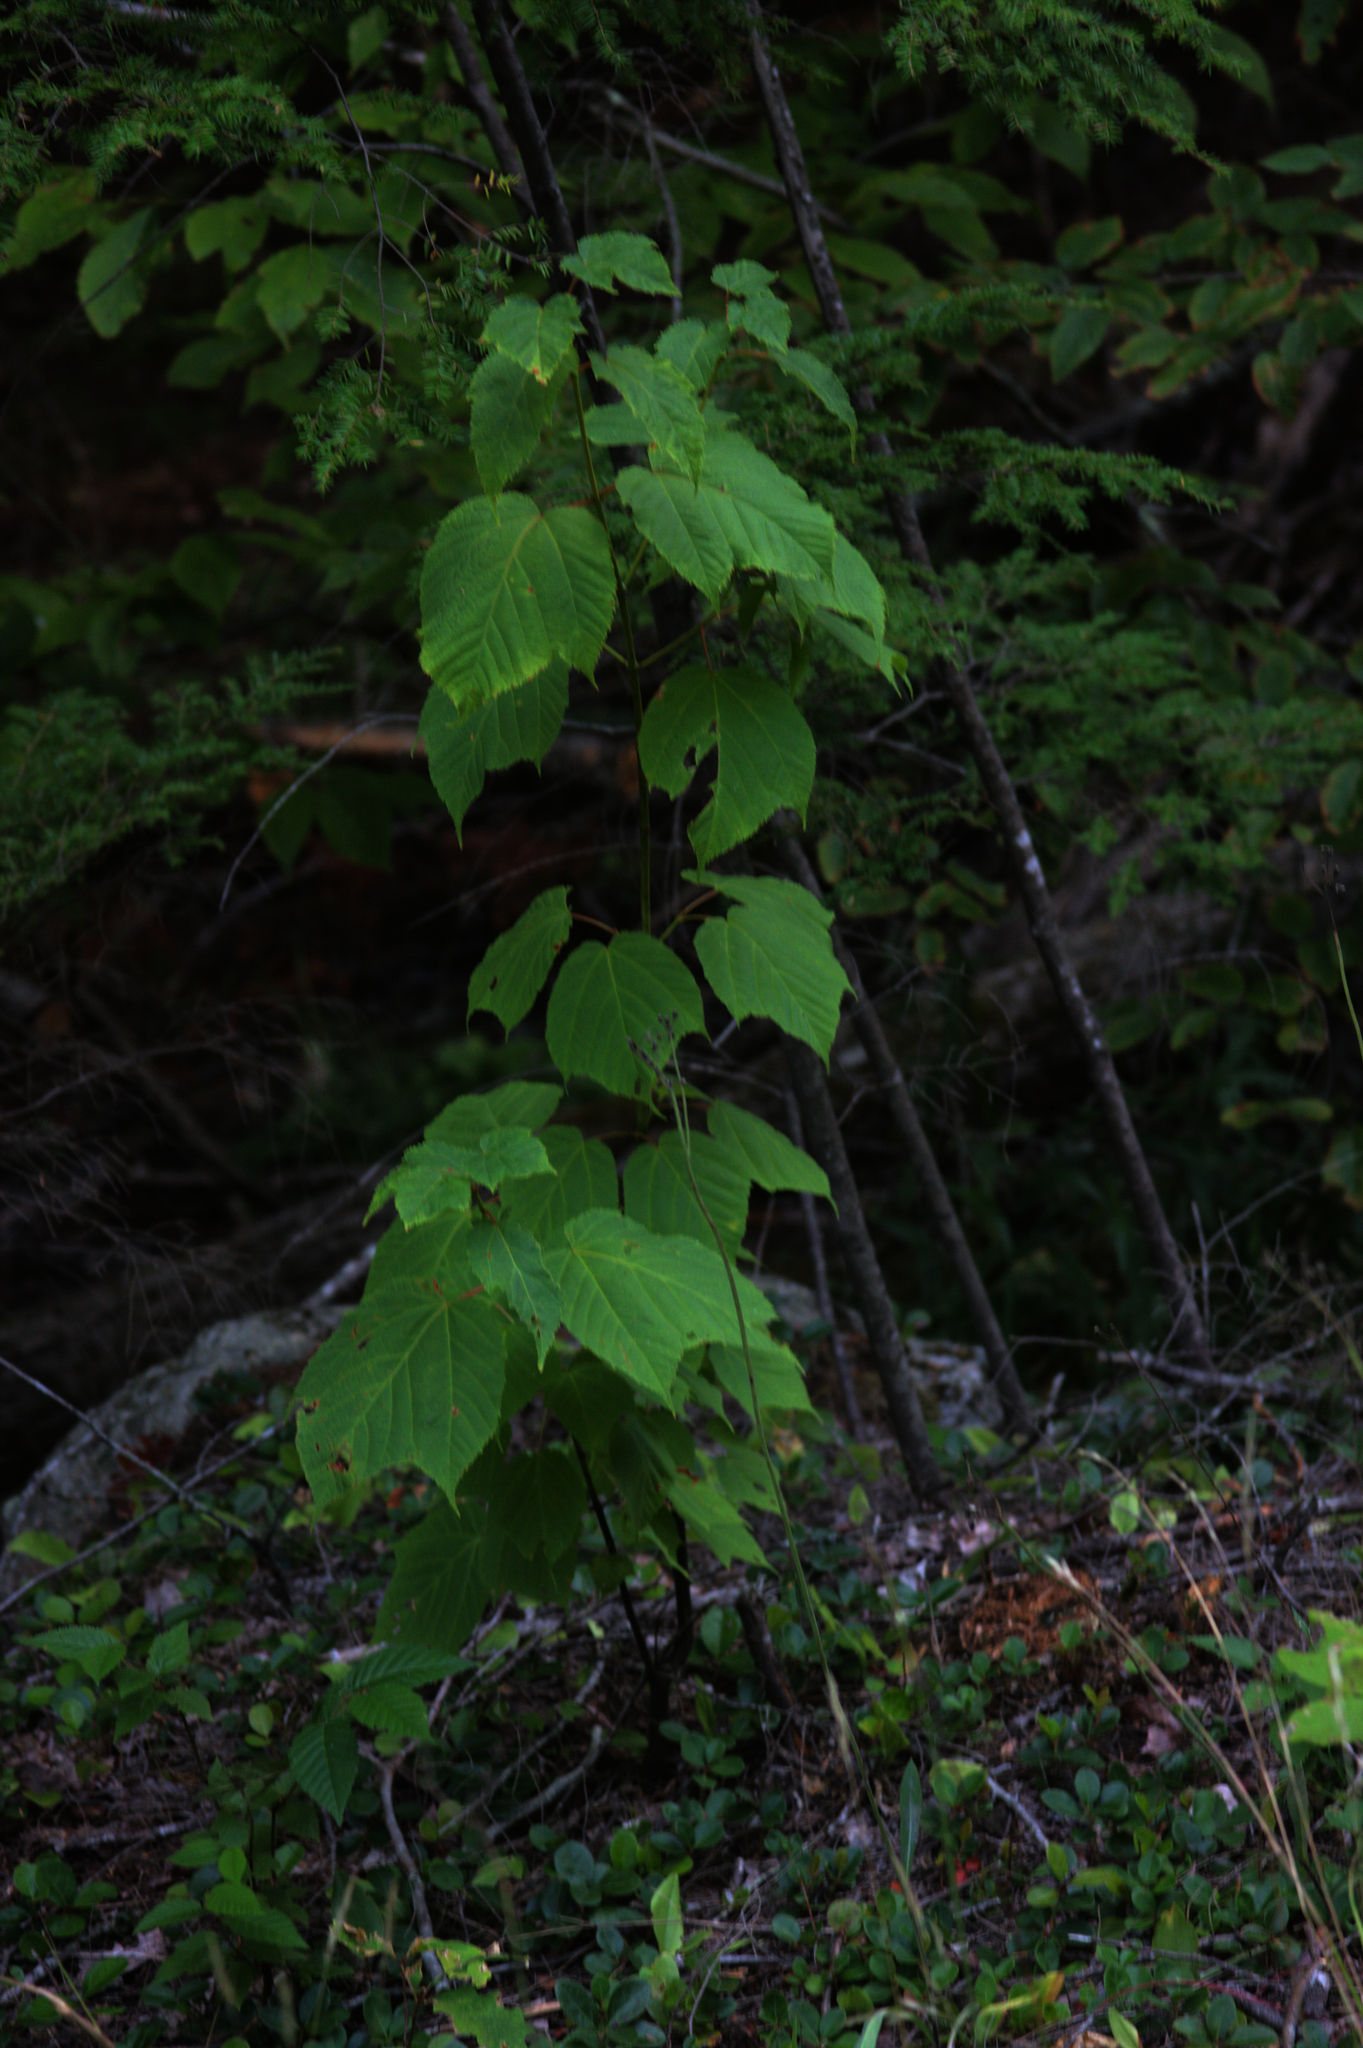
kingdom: Plantae
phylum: Tracheophyta
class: Magnoliopsida
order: Sapindales
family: Sapindaceae
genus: Acer
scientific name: Acer pensylvanicum
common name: Moosewood
